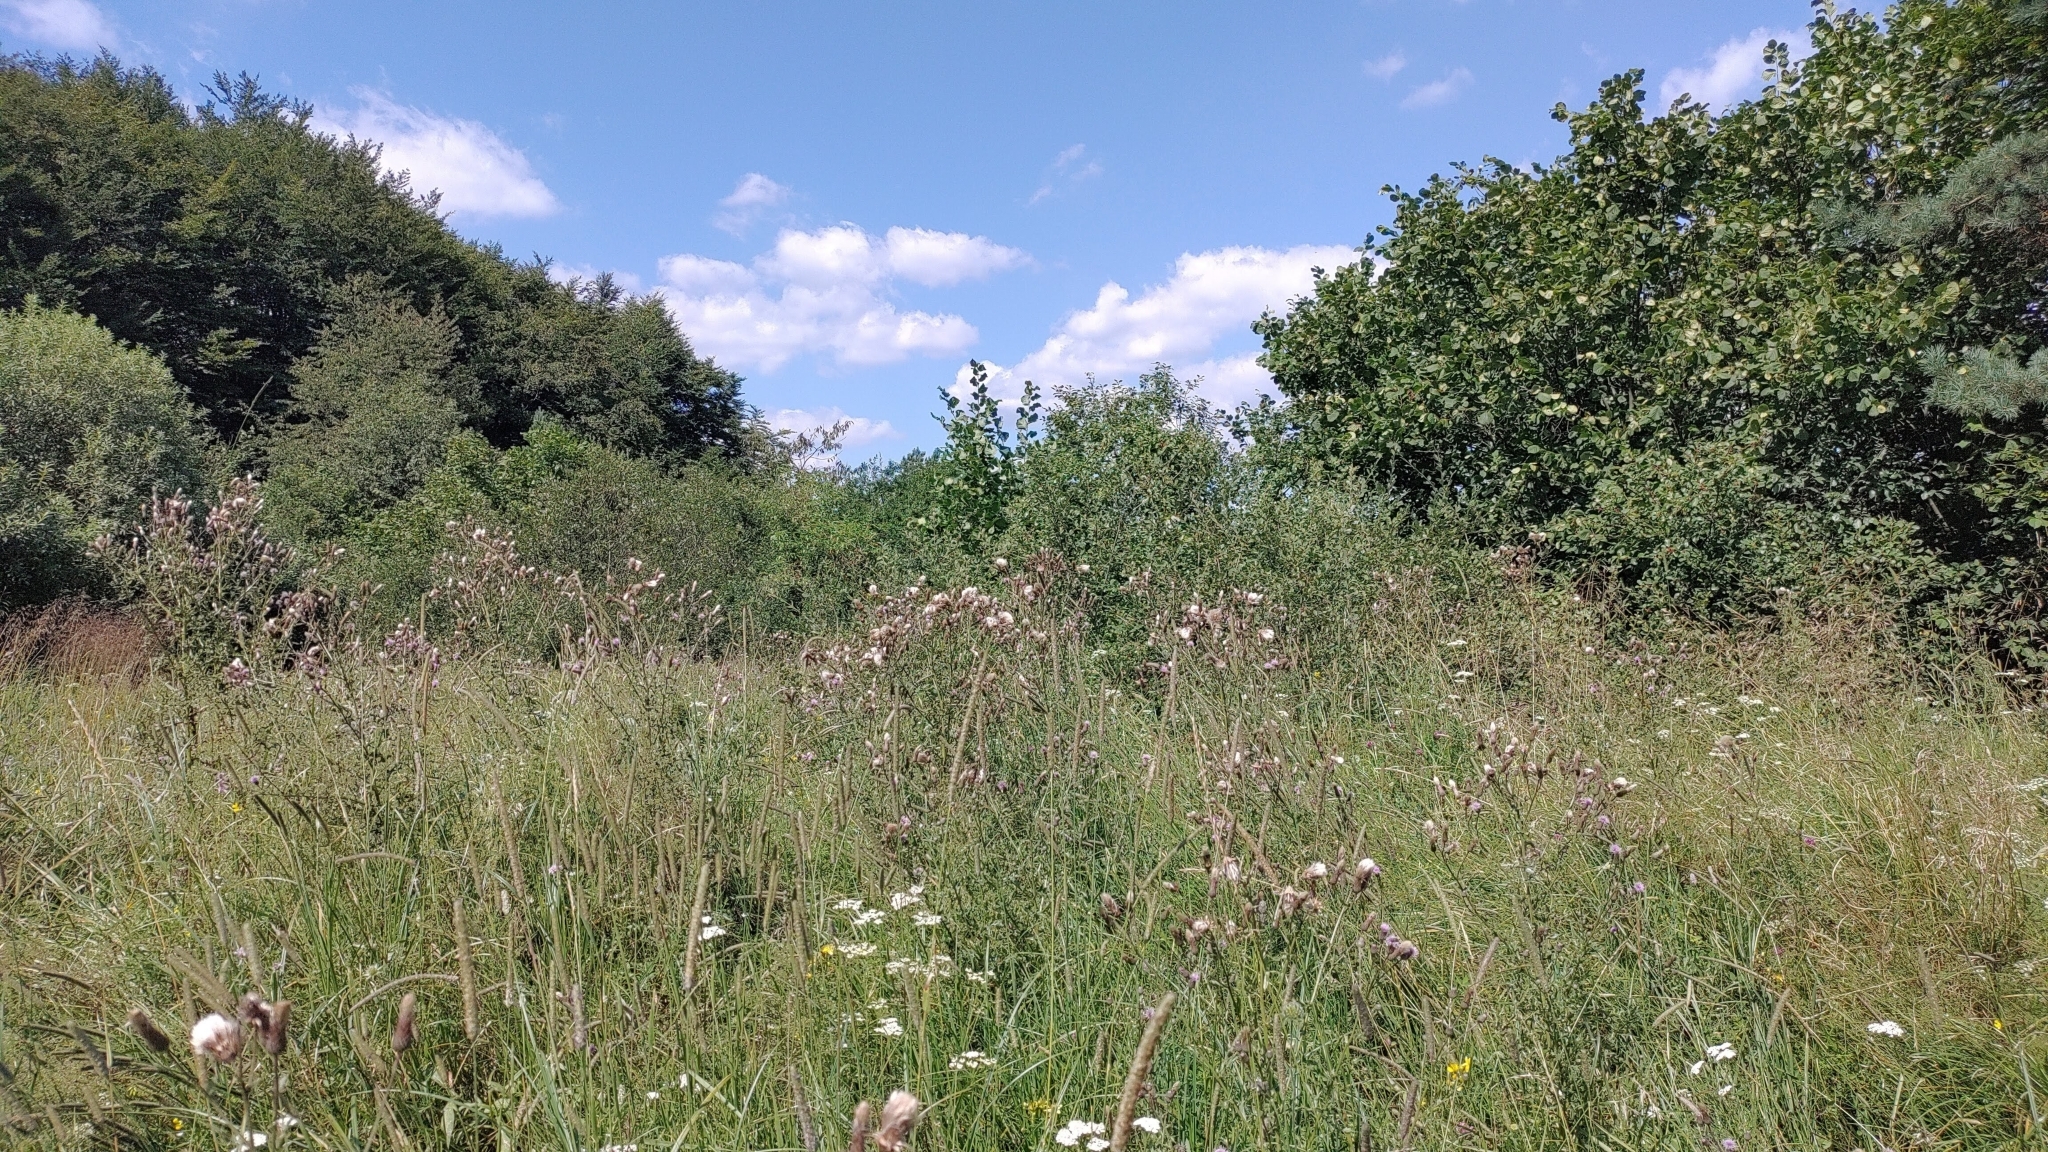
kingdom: Animalia
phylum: Arthropoda
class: Insecta
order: Orthoptera
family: Tettigoniidae
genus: Tettigonia
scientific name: Tettigonia cantans
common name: Upland green bush-cricket
